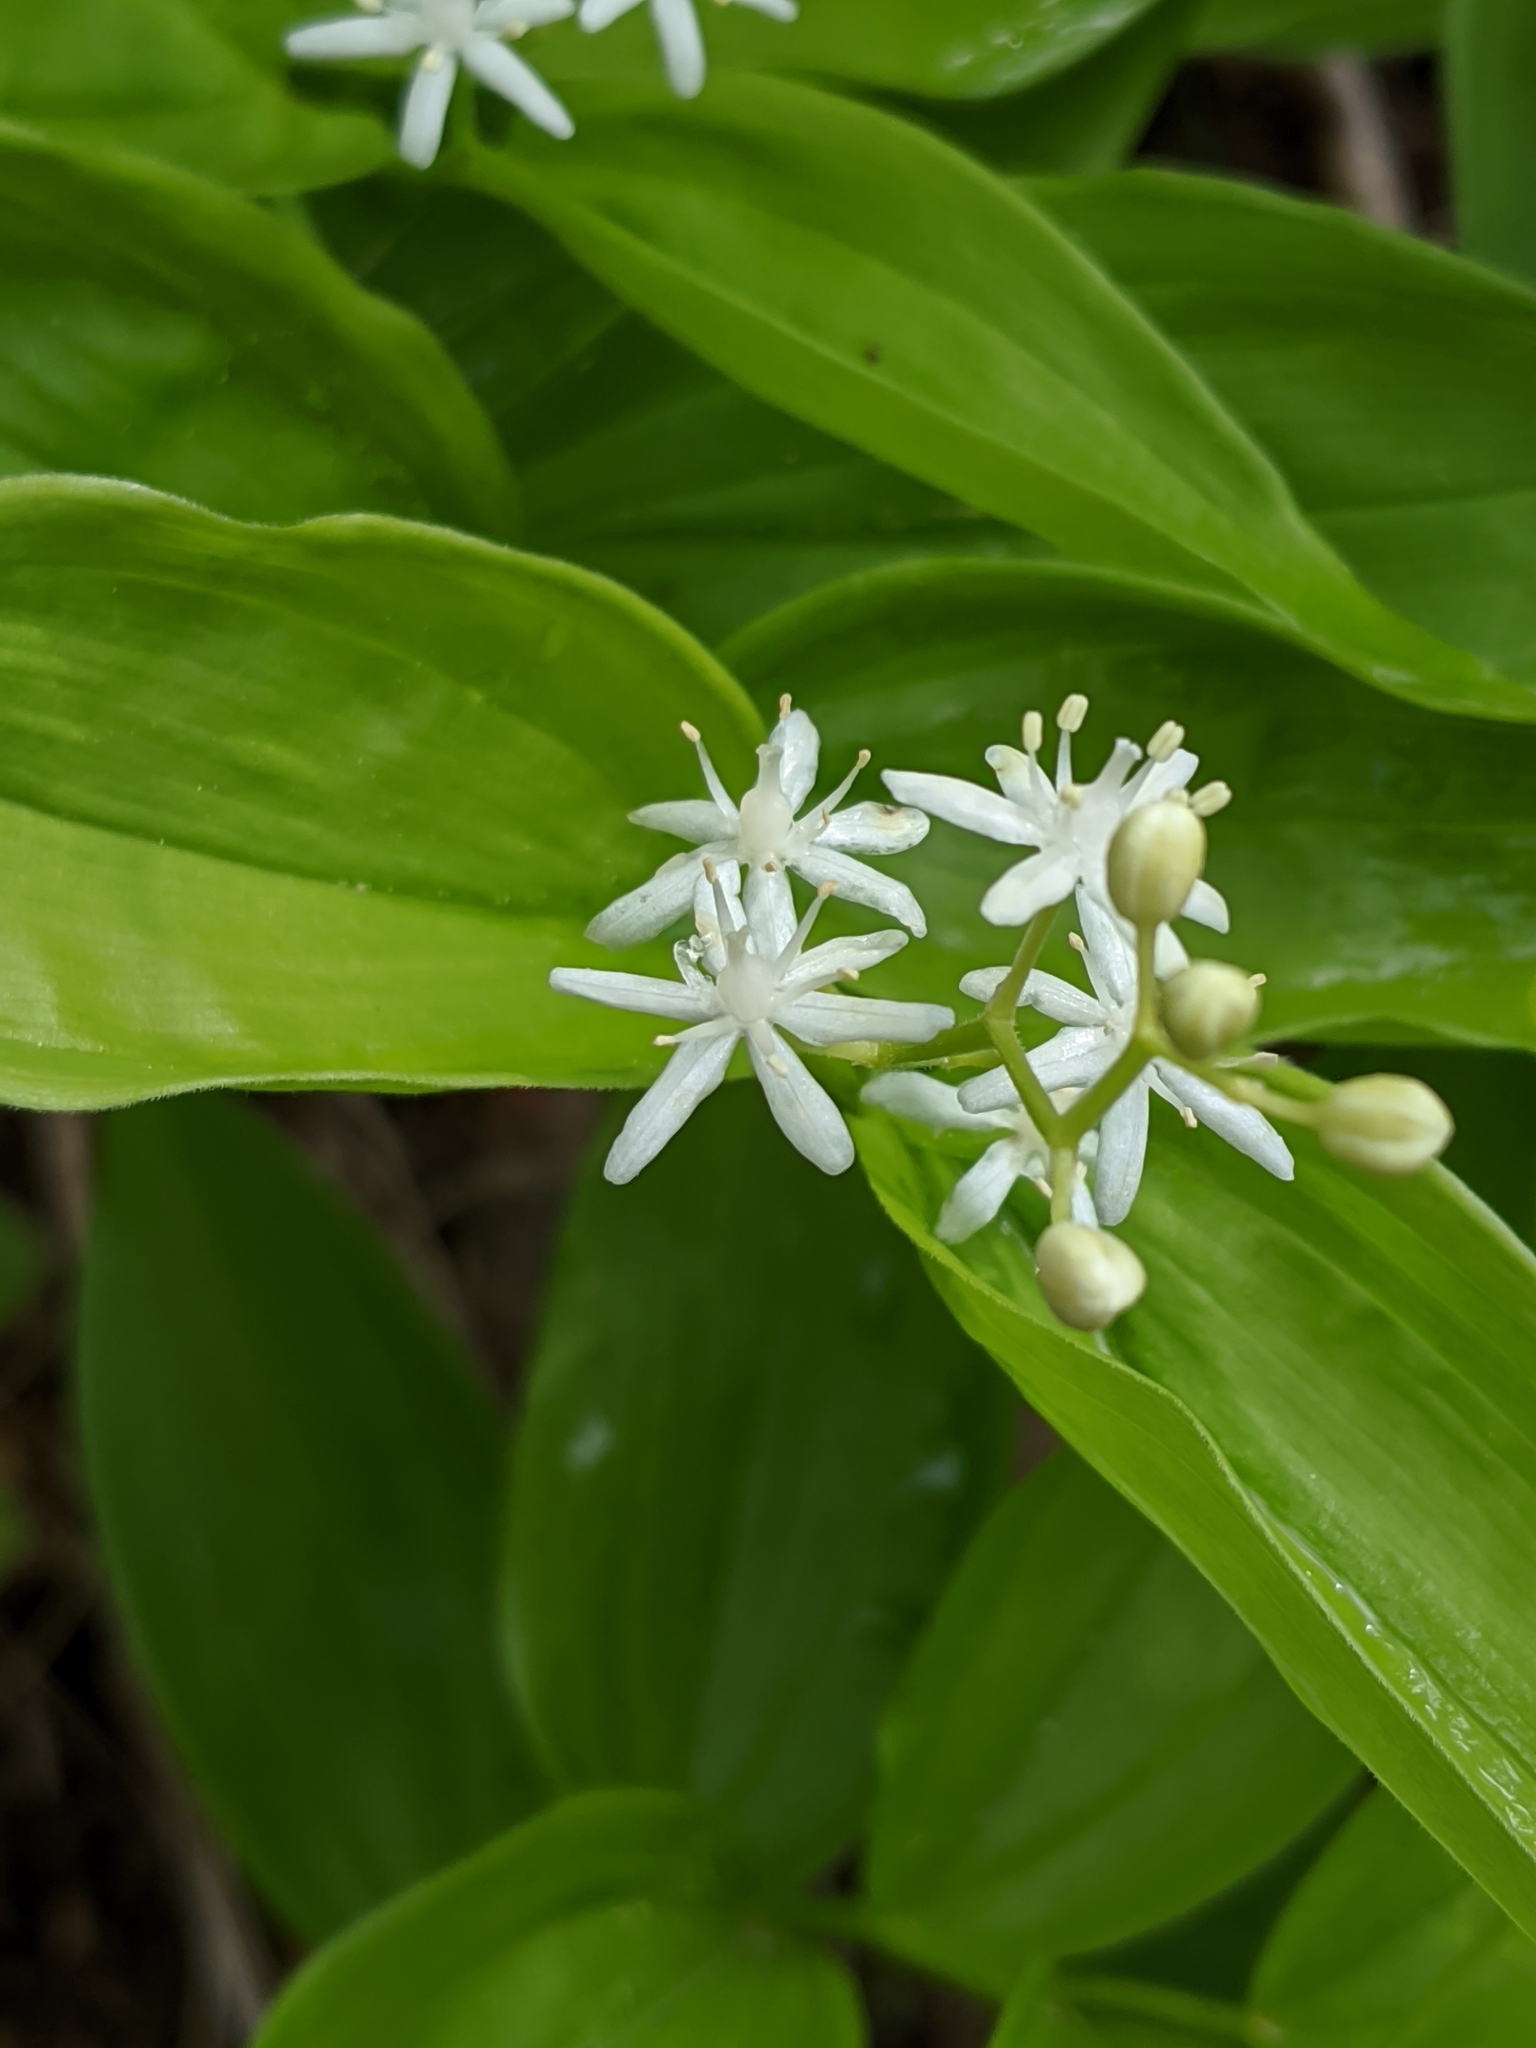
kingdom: Plantae
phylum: Tracheophyta
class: Liliopsida
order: Asparagales
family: Asparagaceae
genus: Maianthemum
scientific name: Maianthemum stellatum
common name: Little false solomon's seal
